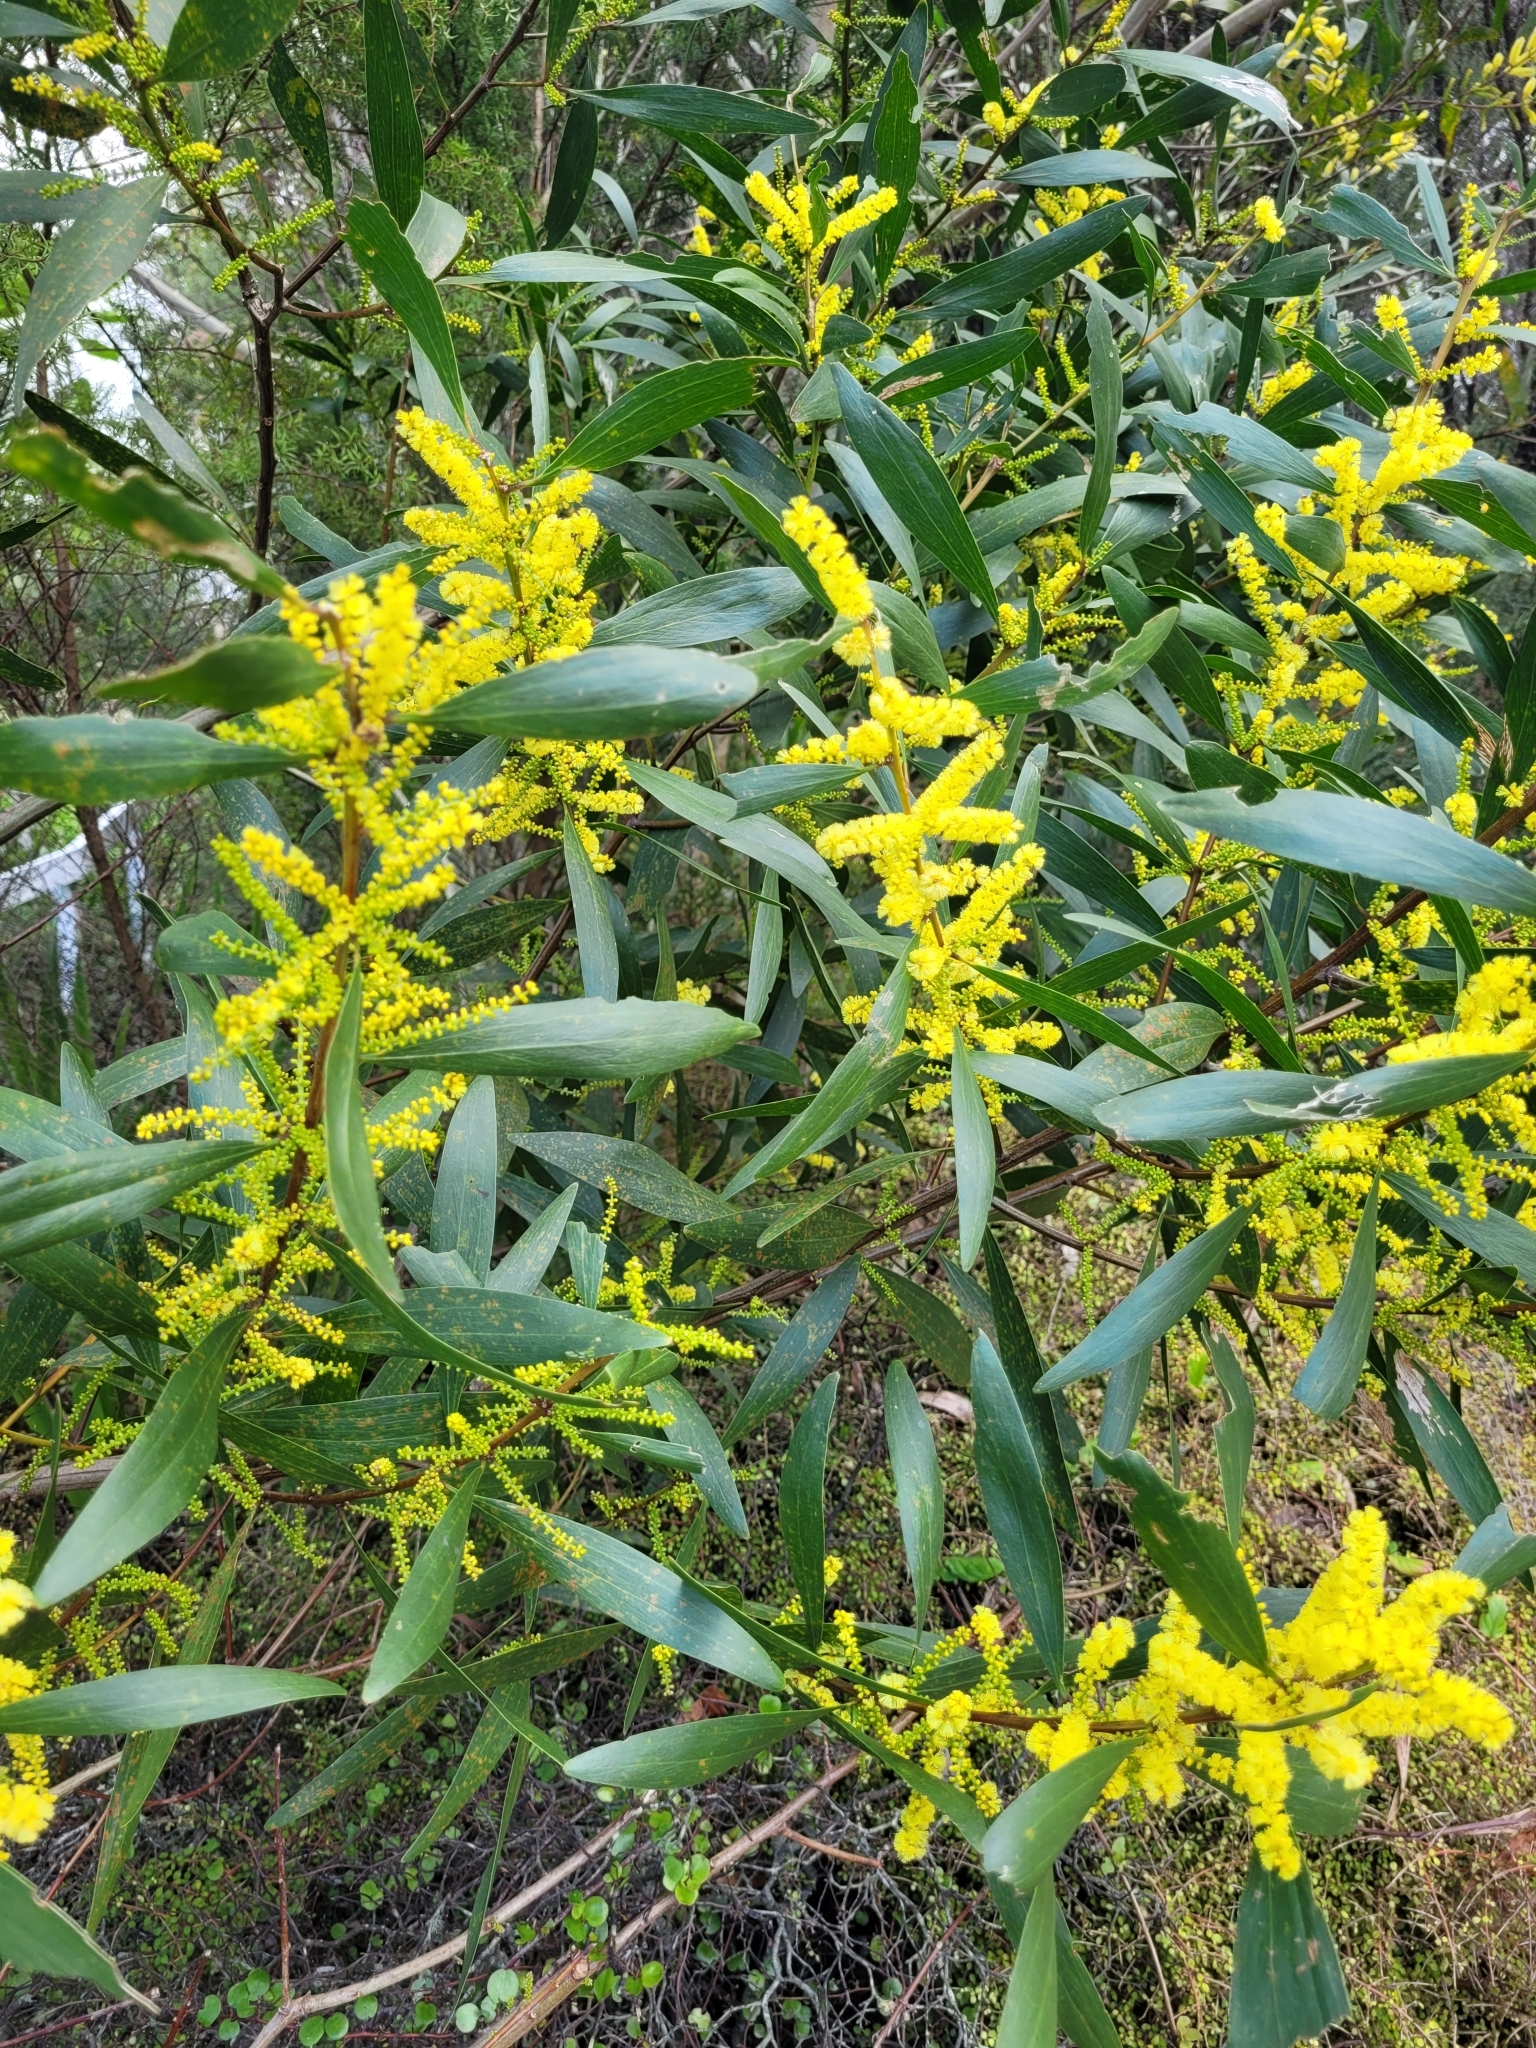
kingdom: Plantae
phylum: Tracheophyta
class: Magnoliopsida
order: Fabales
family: Fabaceae
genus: Acacia
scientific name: Acacia longifolia
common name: Sydney golden wattle
